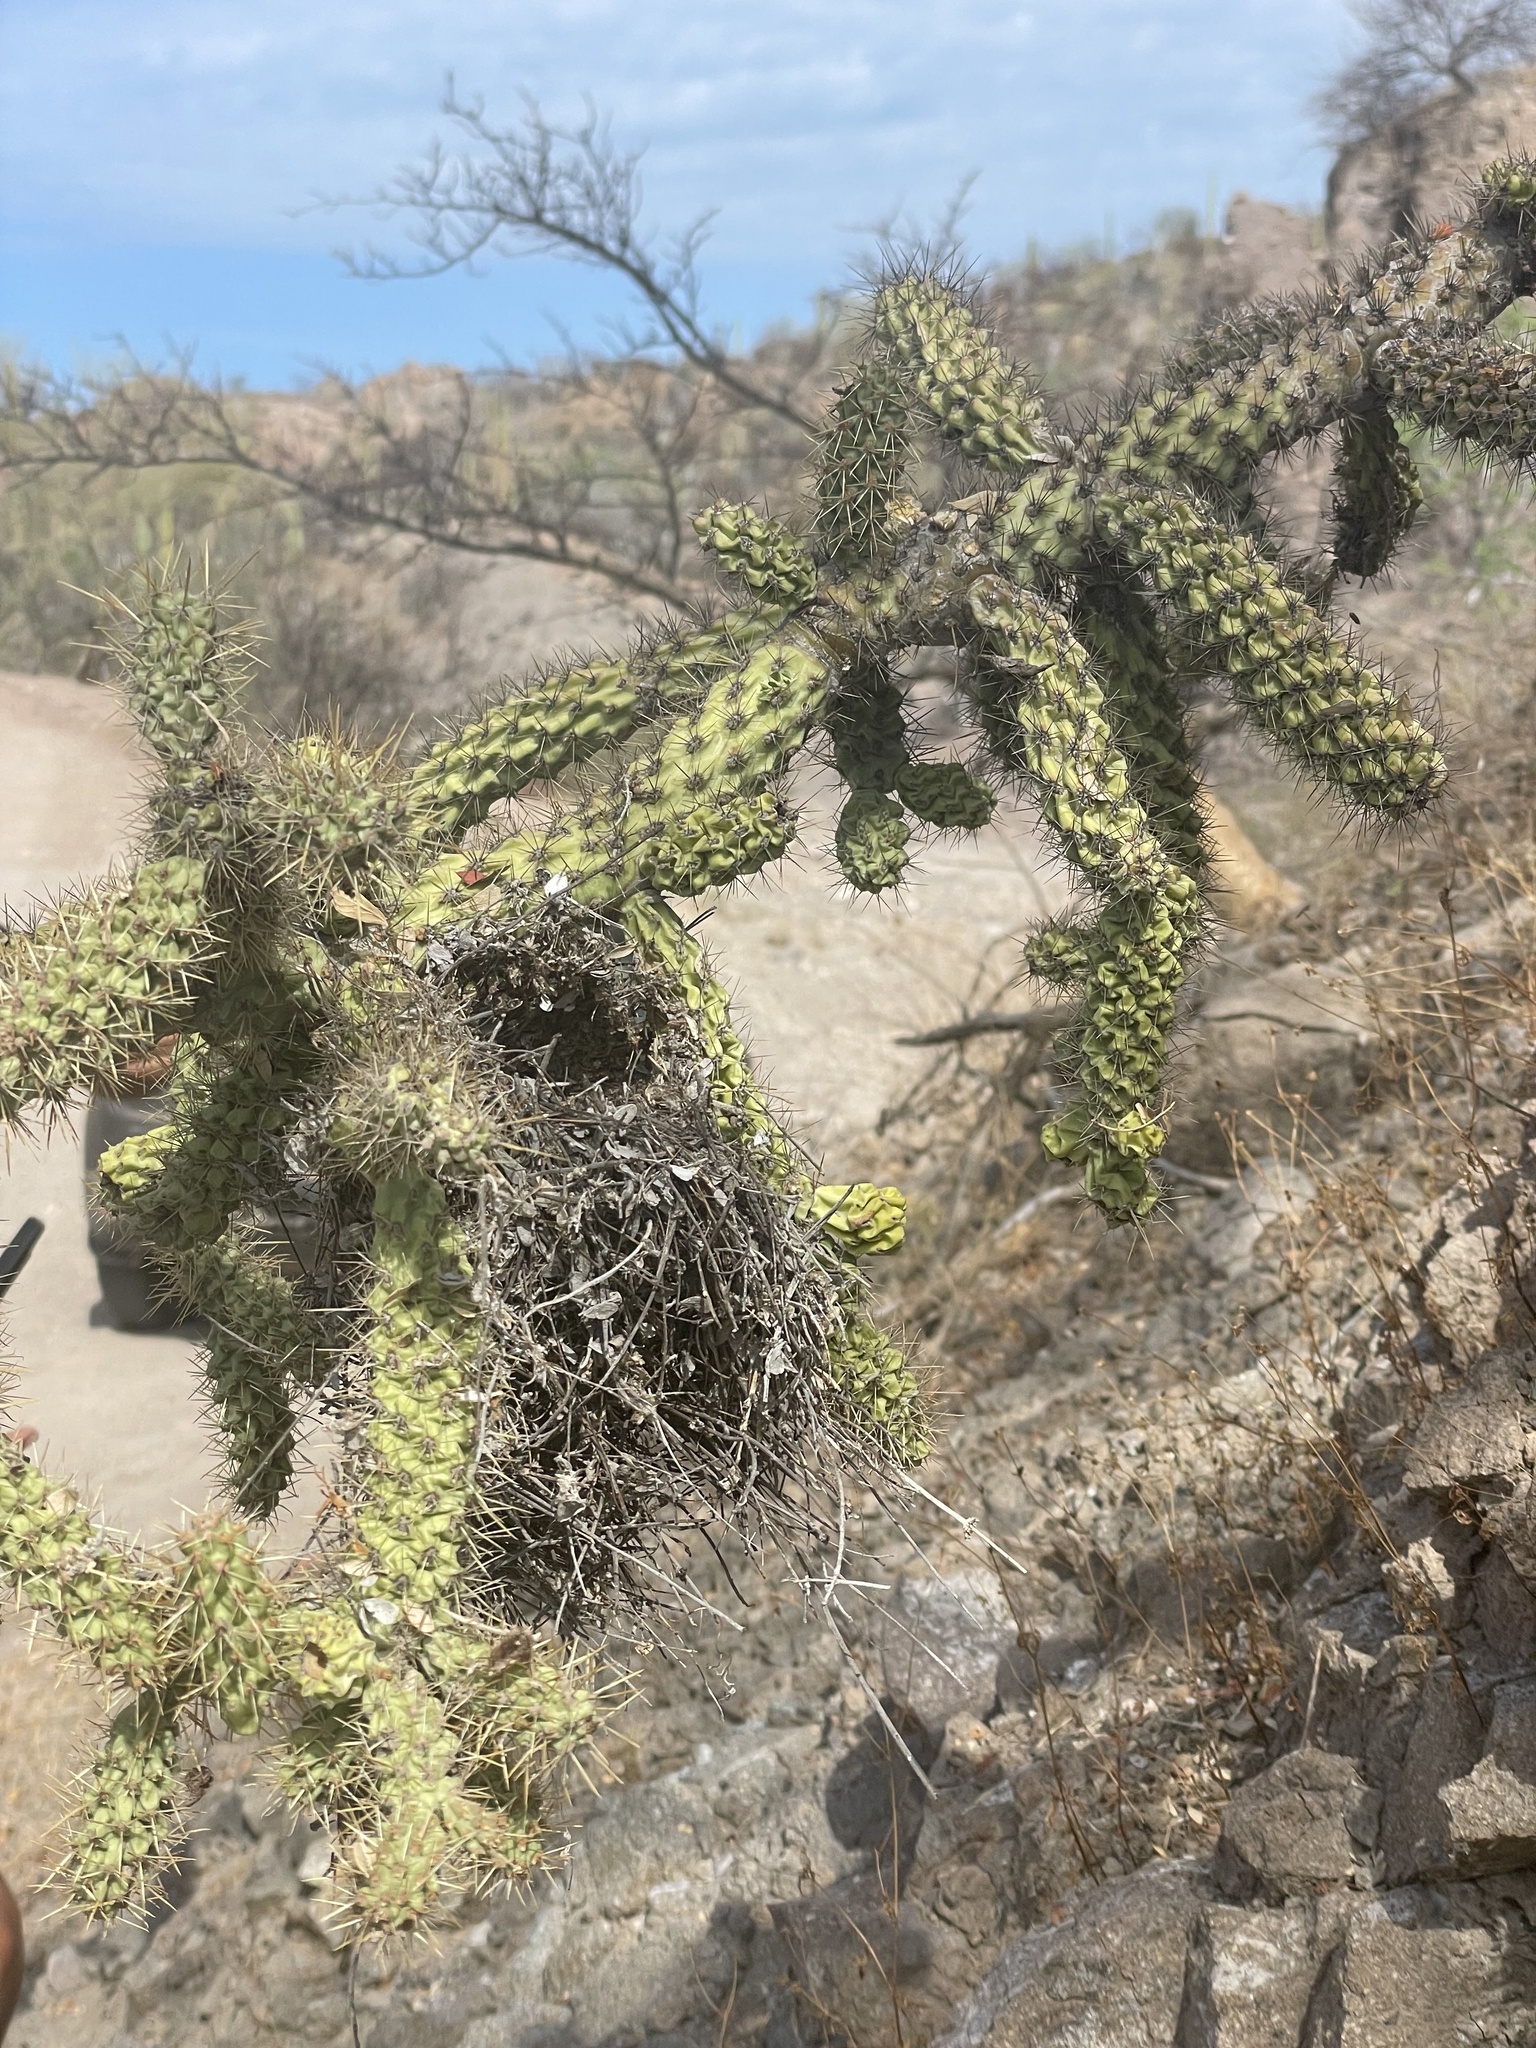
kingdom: Plantae
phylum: Tracheophyta
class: Magnoliopsida
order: Caryophyllales
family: Cactaceae
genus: Cylindropuntia
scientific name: Cylindropuntia alcahes
